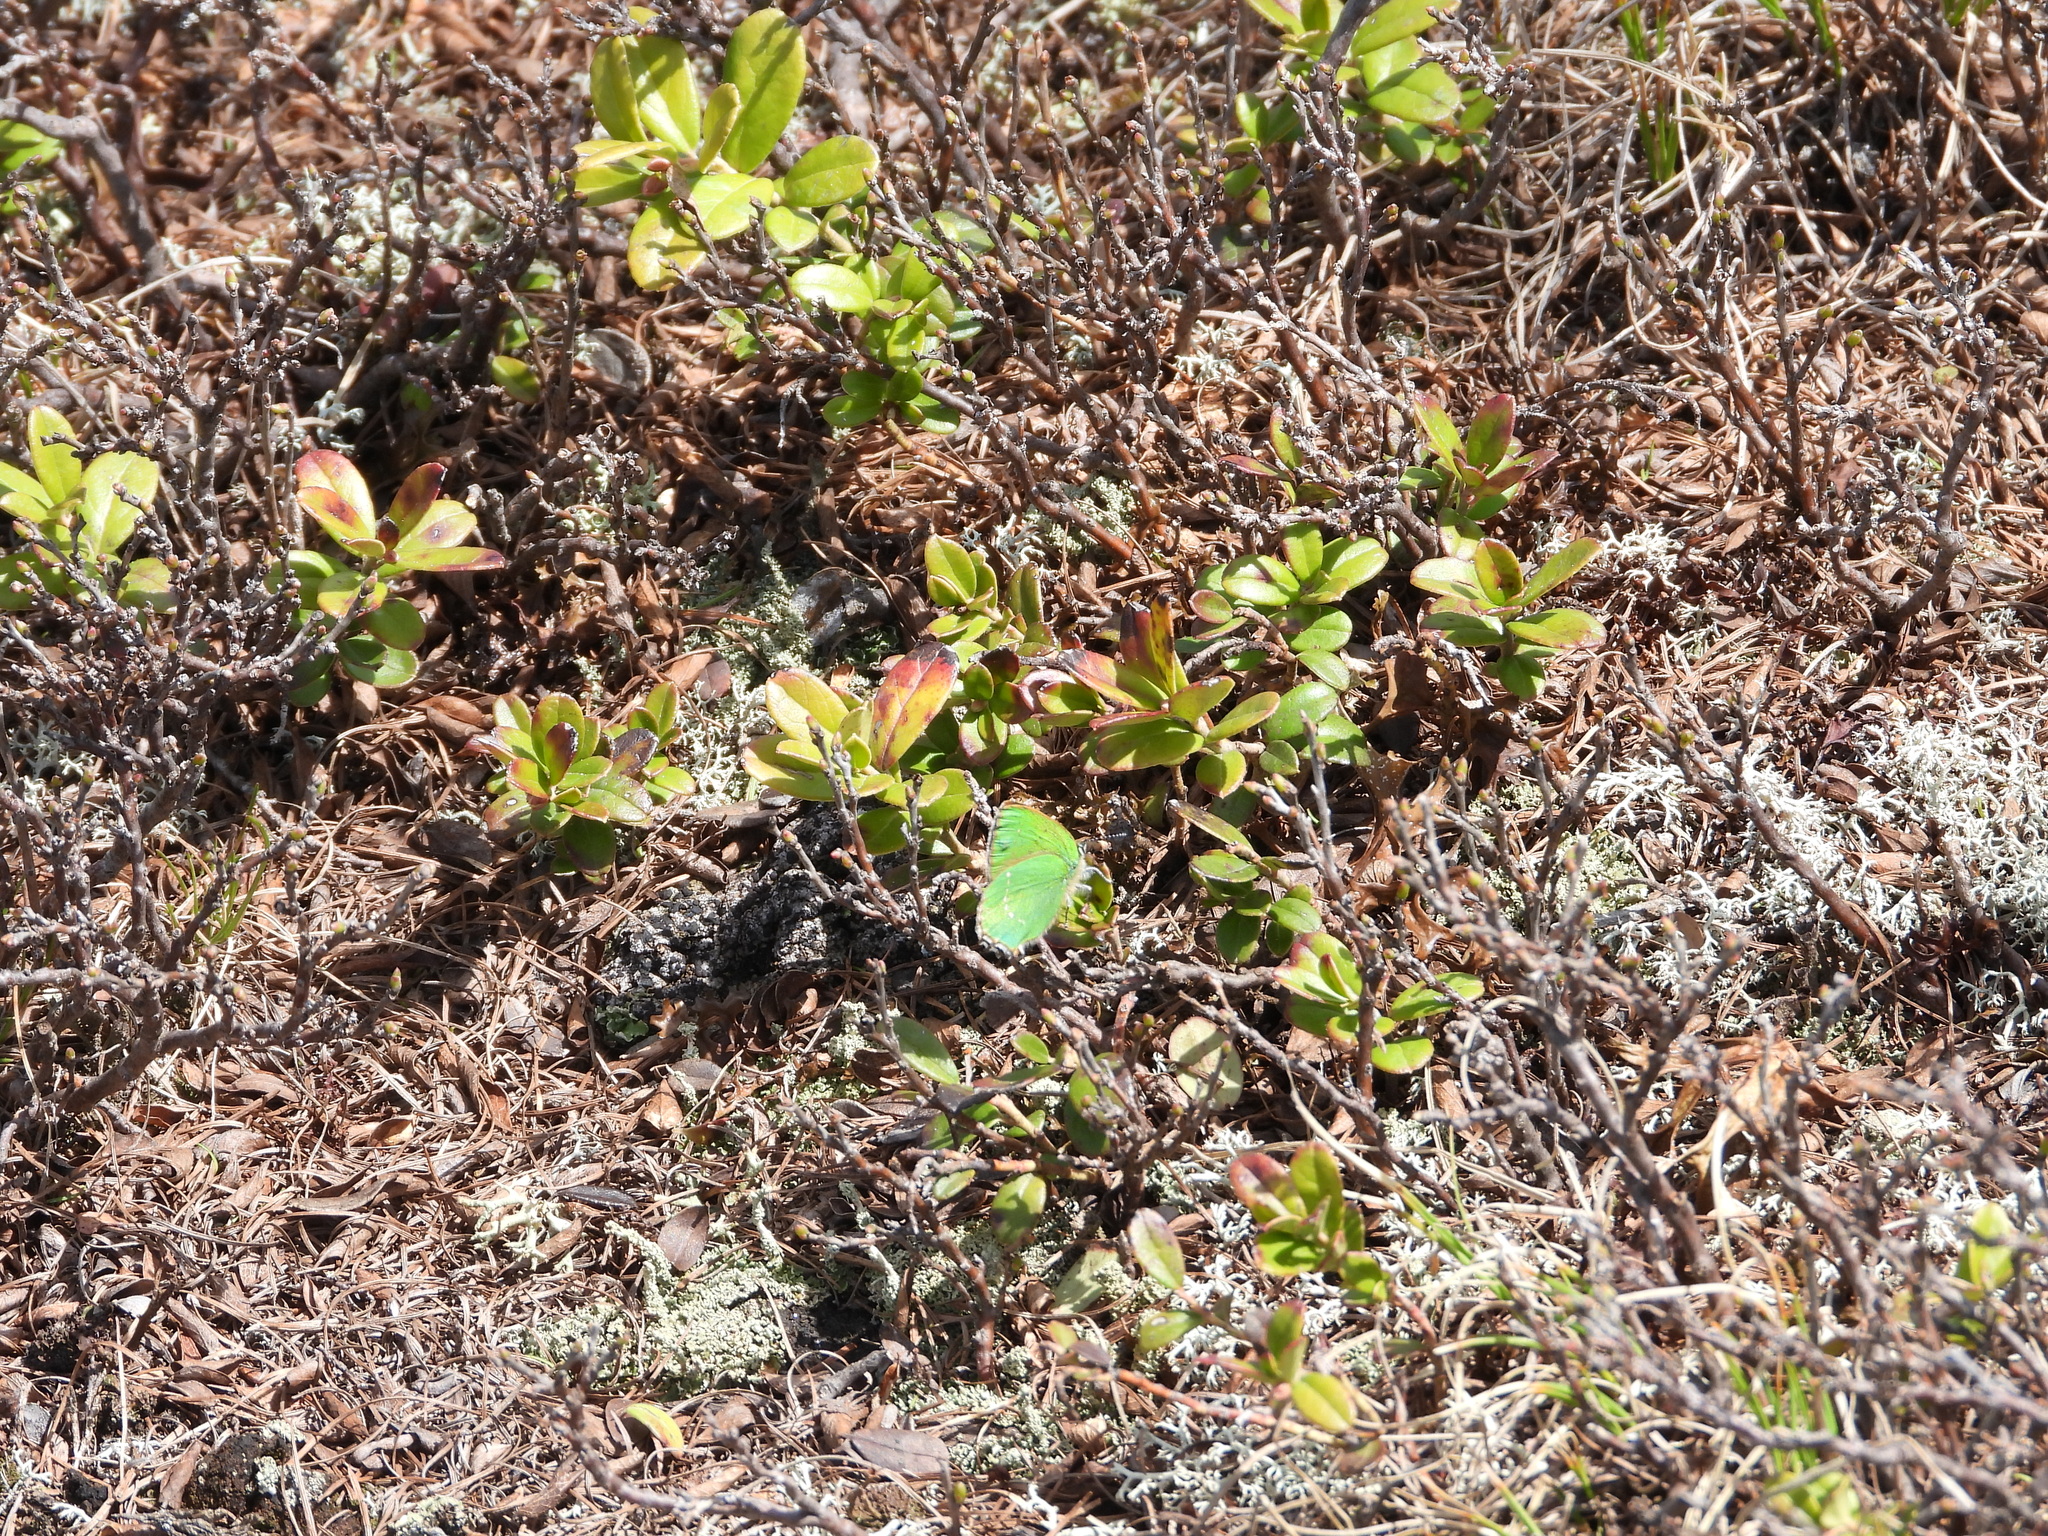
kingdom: Animalia
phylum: Arthropoda
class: Insecta
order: Lepidoptera
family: Lycaenidae
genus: Callophrys
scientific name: Callophrys rubi
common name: Green hairstreak
